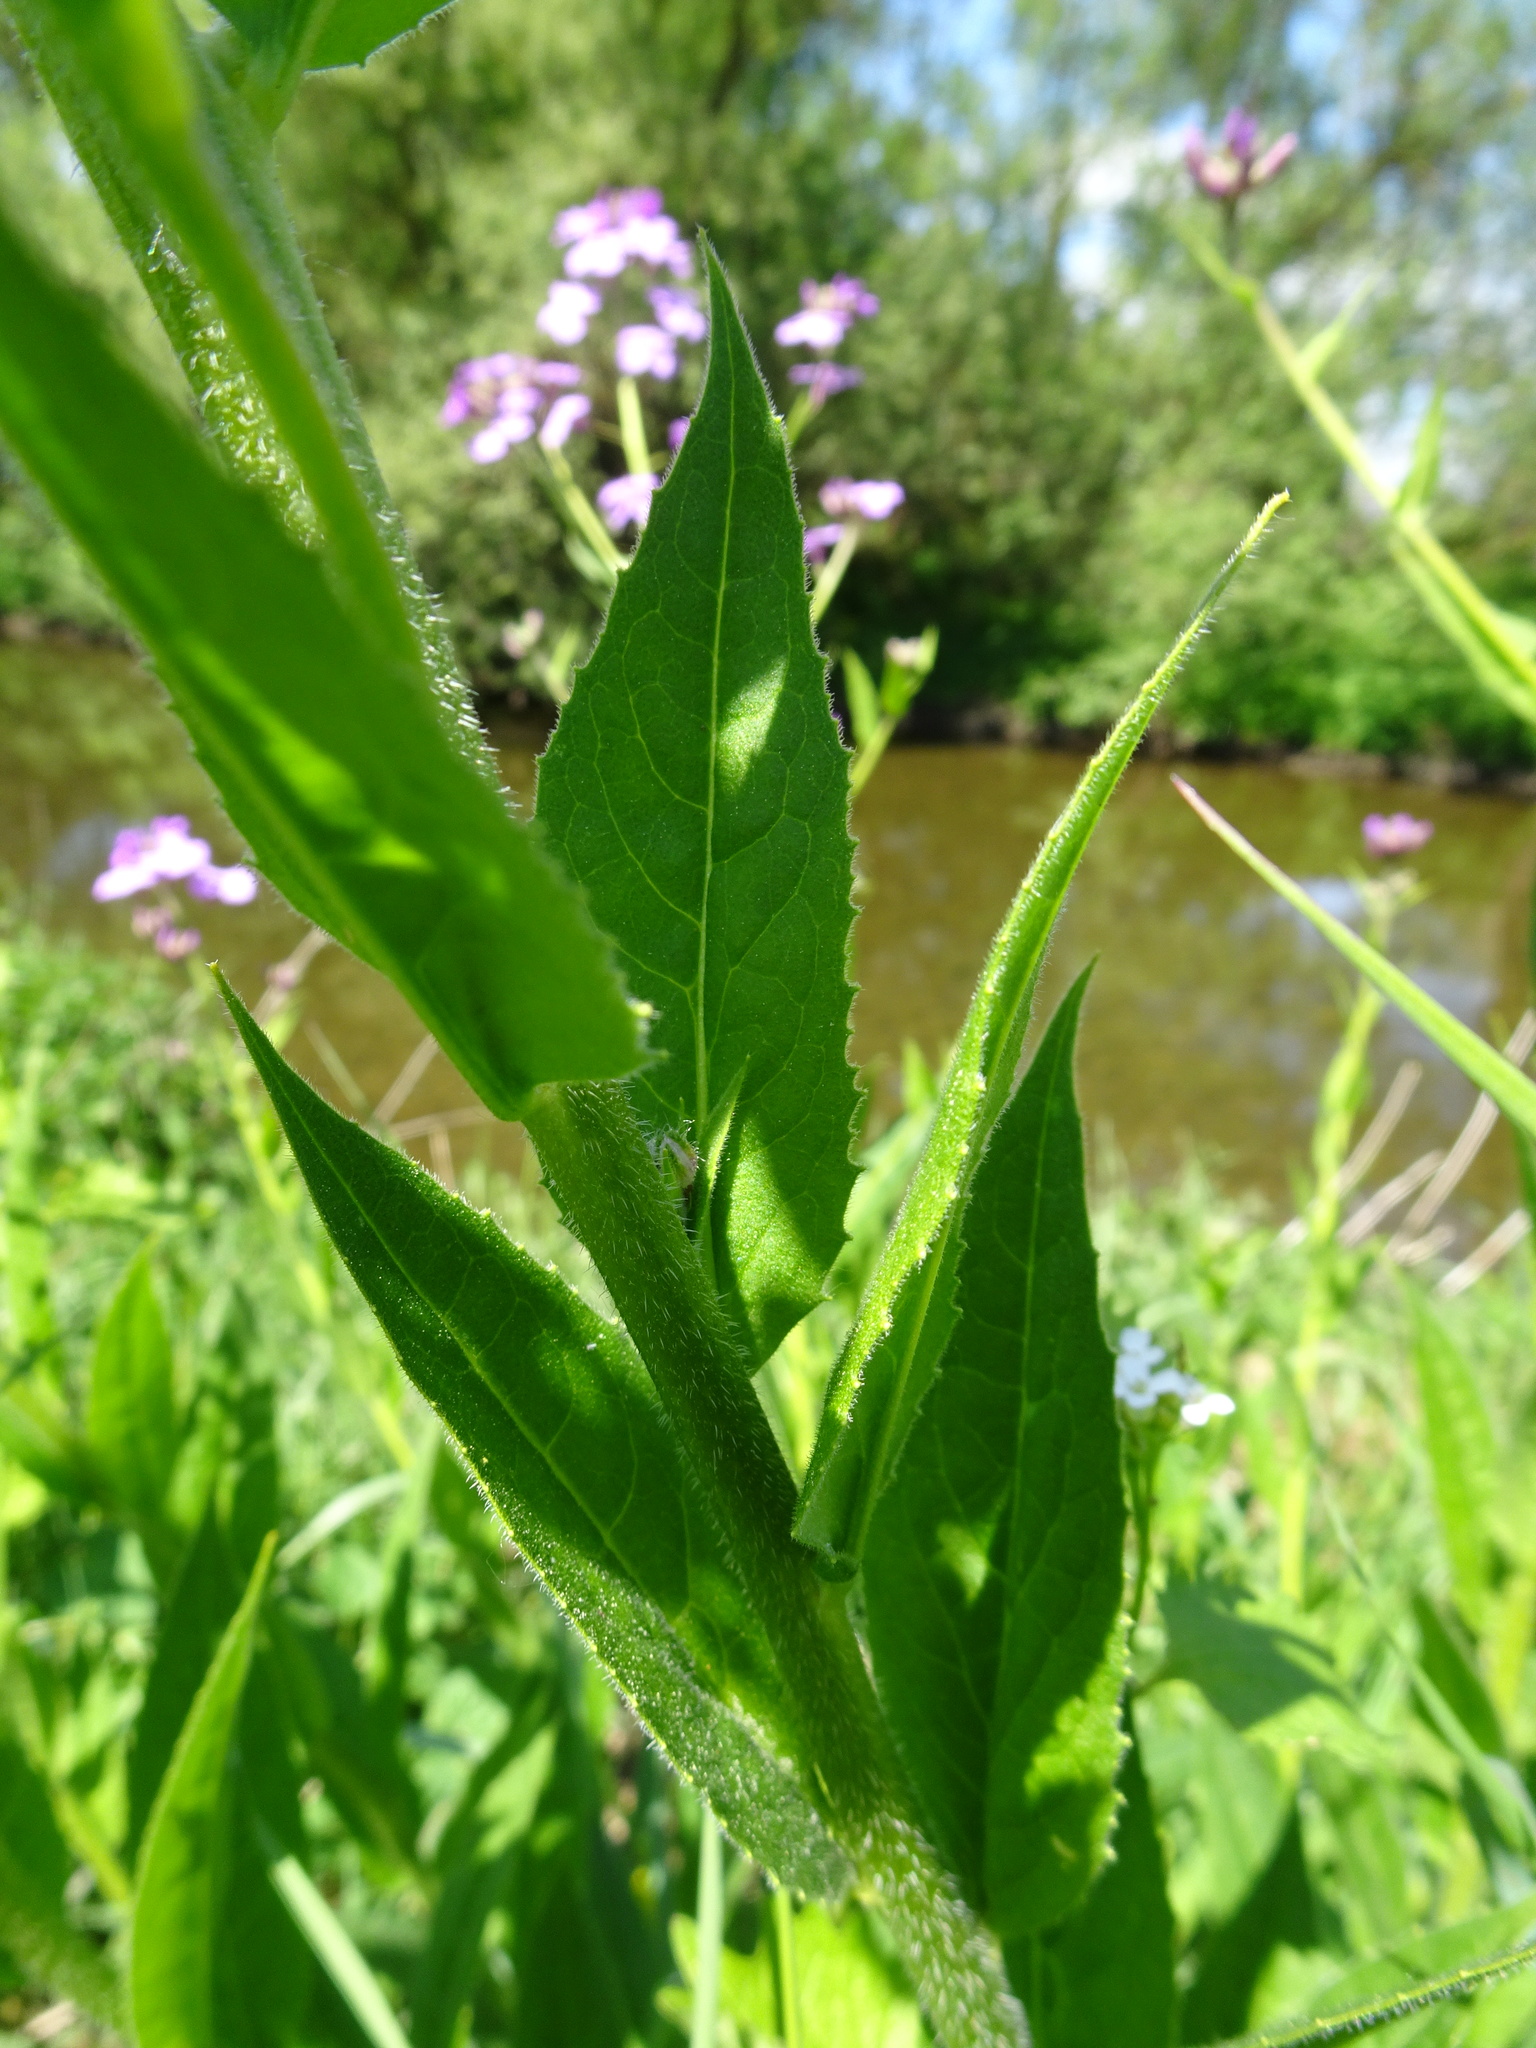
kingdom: Plantae
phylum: Tracheophyta
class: Magnoliopsida
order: Brassicales
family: Brassicaceae
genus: Hesperis
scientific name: Hesperis matronalis
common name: Dame's-violet
